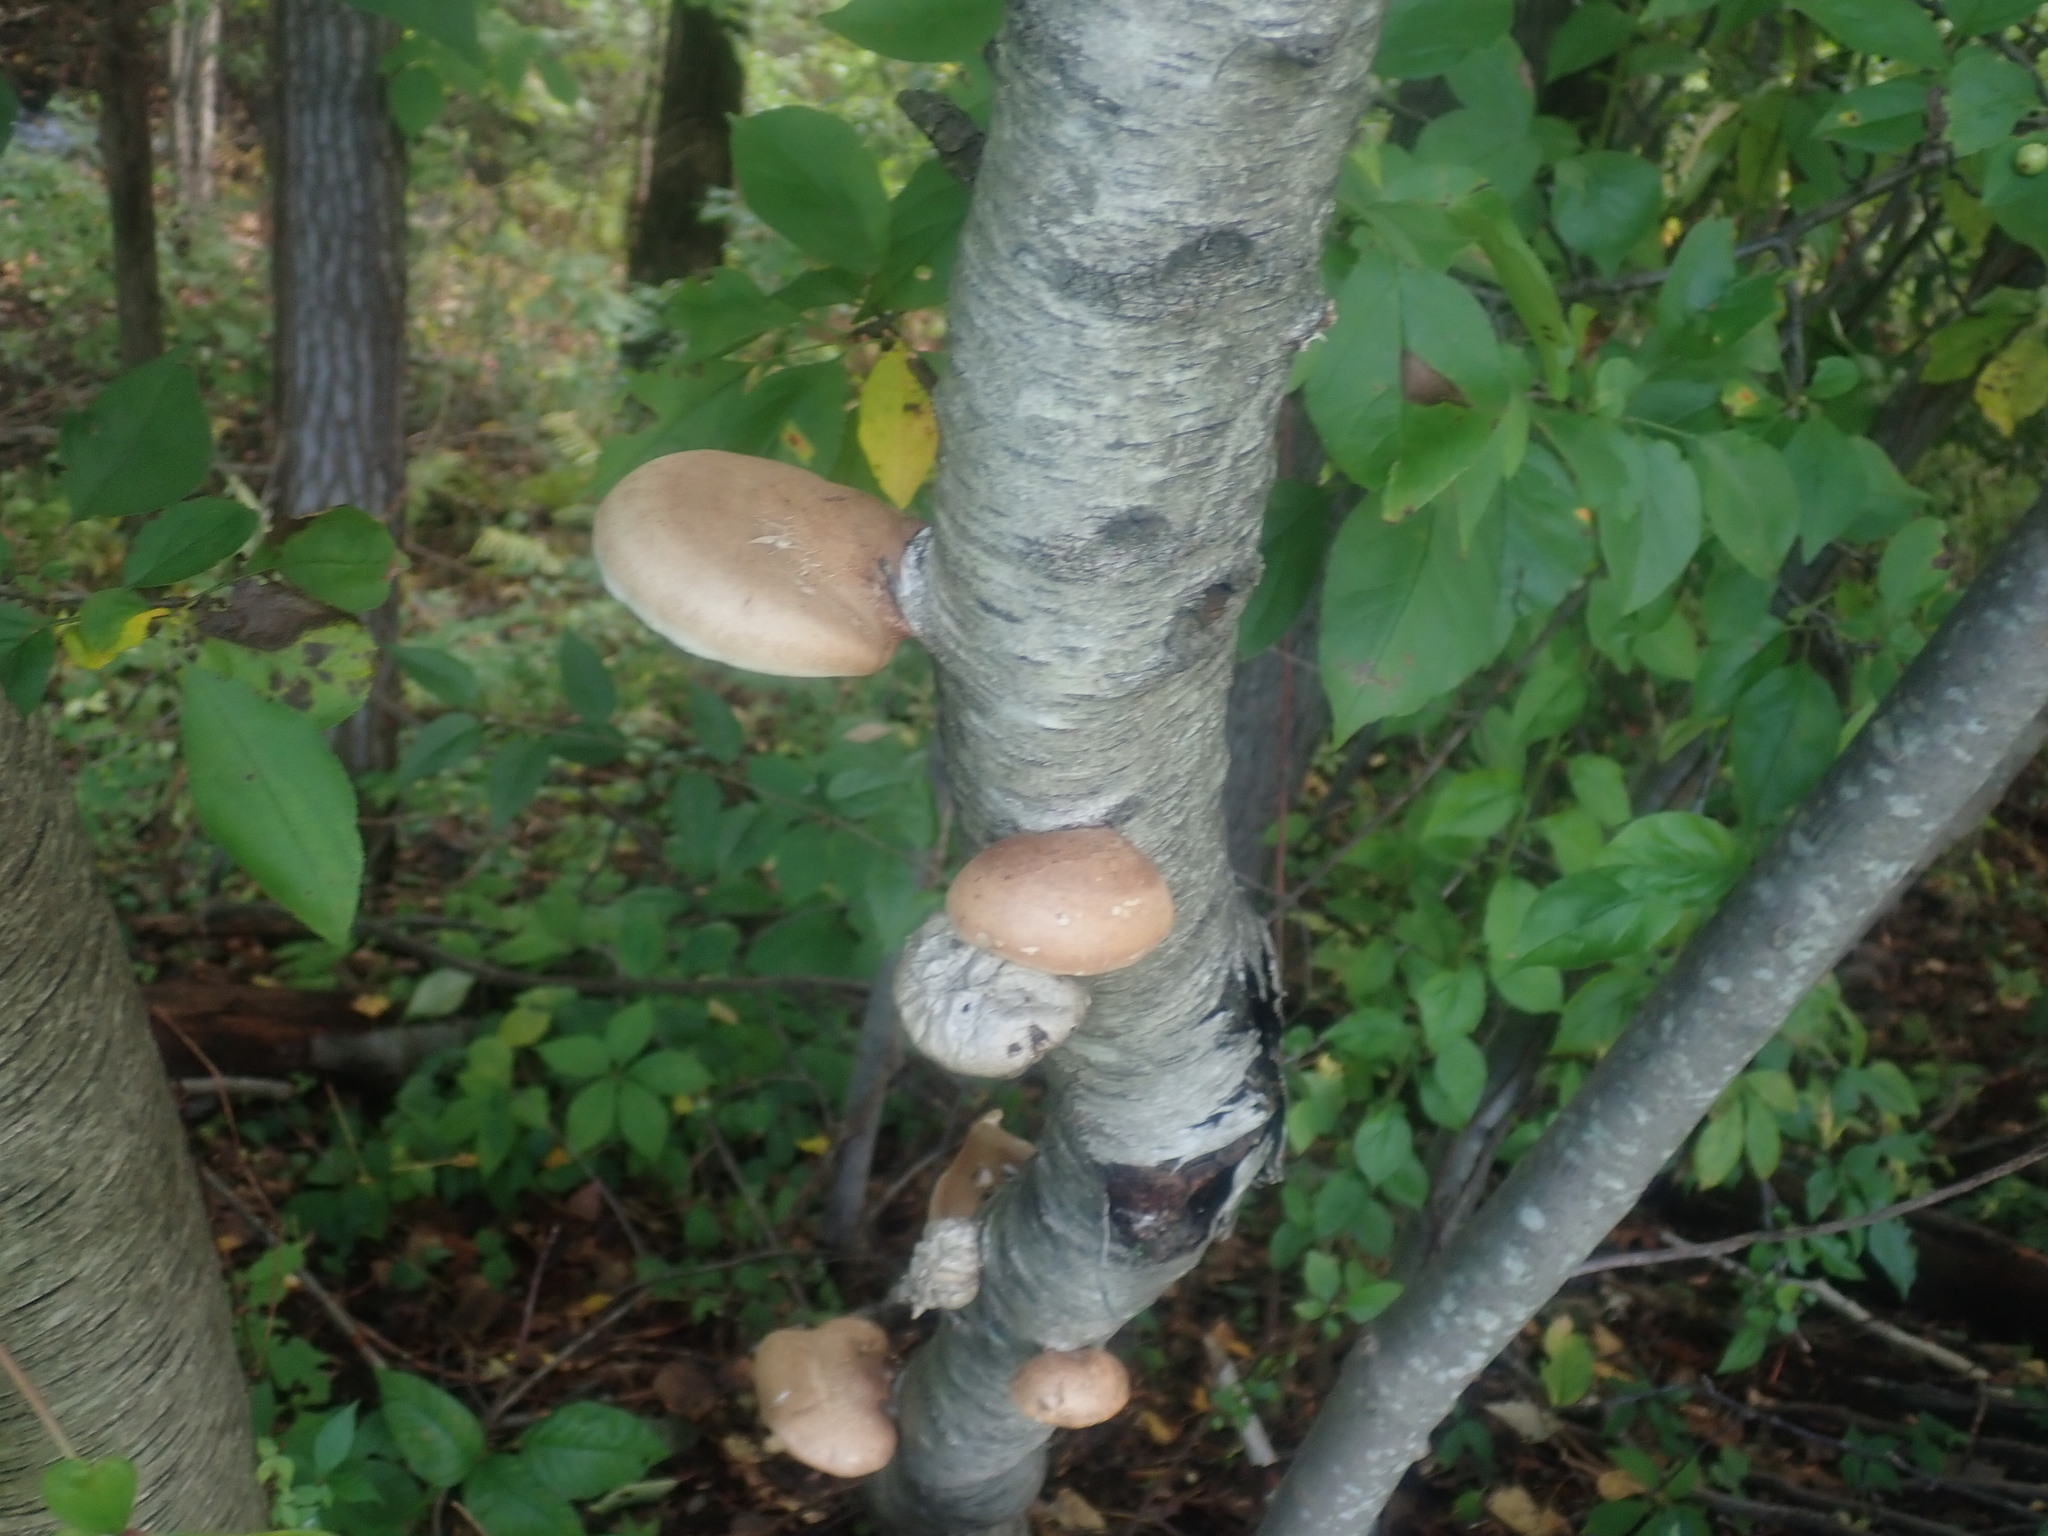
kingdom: Fungi
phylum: Basidiomycota
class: Agaricomycetes
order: Polyporales
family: Fomitopsidaceae
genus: Fomitopsis
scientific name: Fomitopsis betulina
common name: Birch polypore
